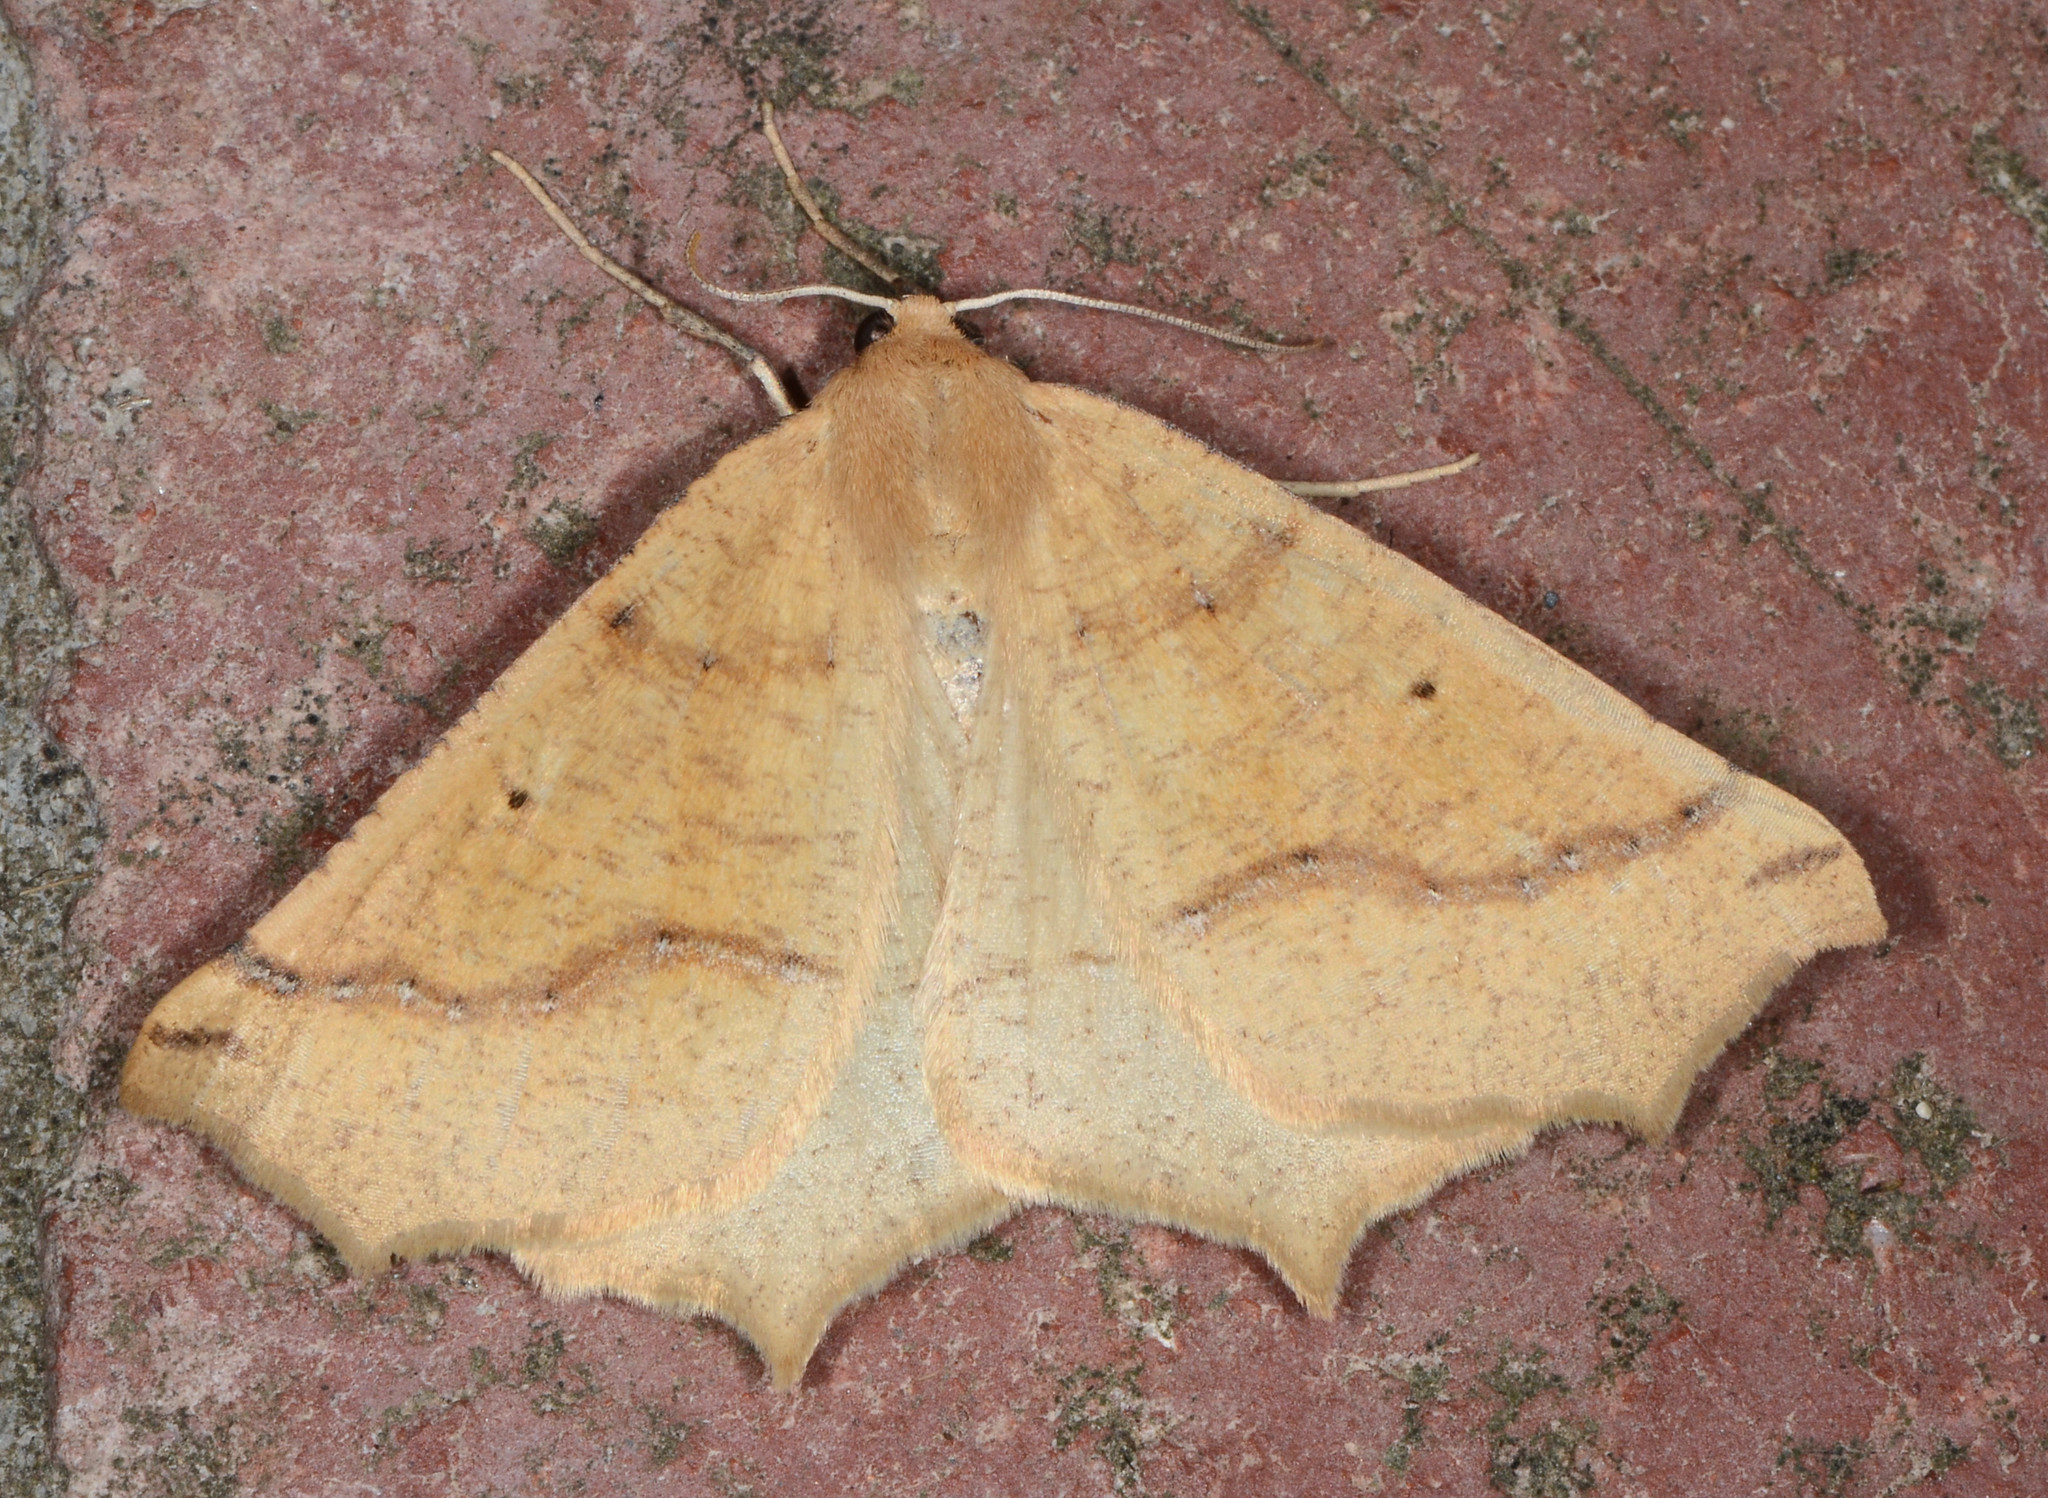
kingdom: Animalia
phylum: Arthropoda
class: Insecta
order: Lepidoptera
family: Geometridae
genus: Prochoerodes
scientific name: Prochoerodes truxaliata
